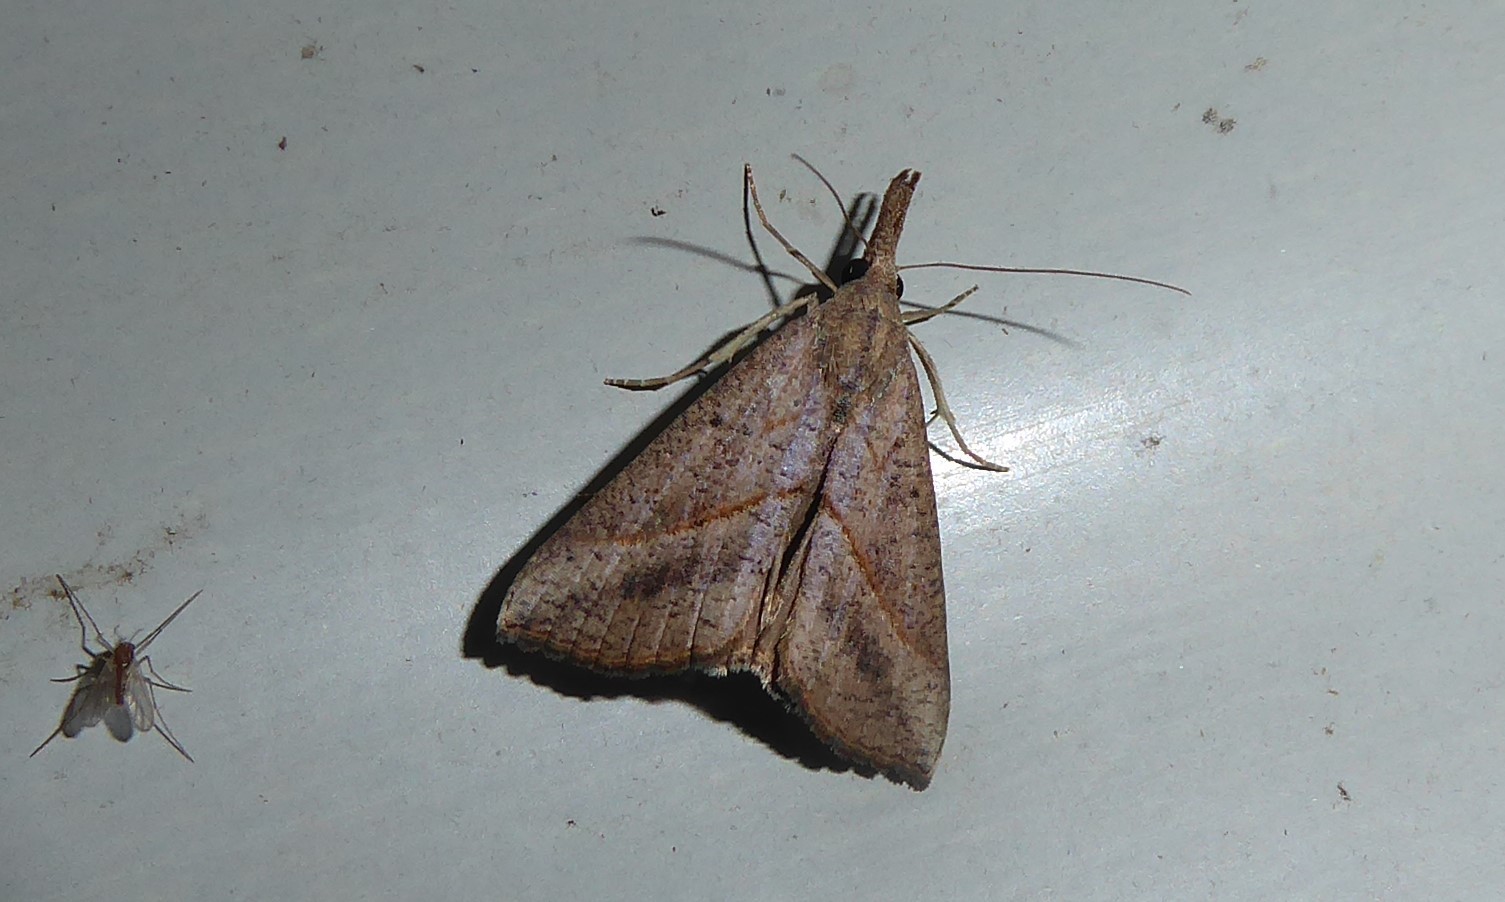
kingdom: Animalia
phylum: Arthropoda
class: Insecta
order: Lepidoptera
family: Erebidae
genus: Hypena
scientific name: Hypena lividalis
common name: Chevron snout
